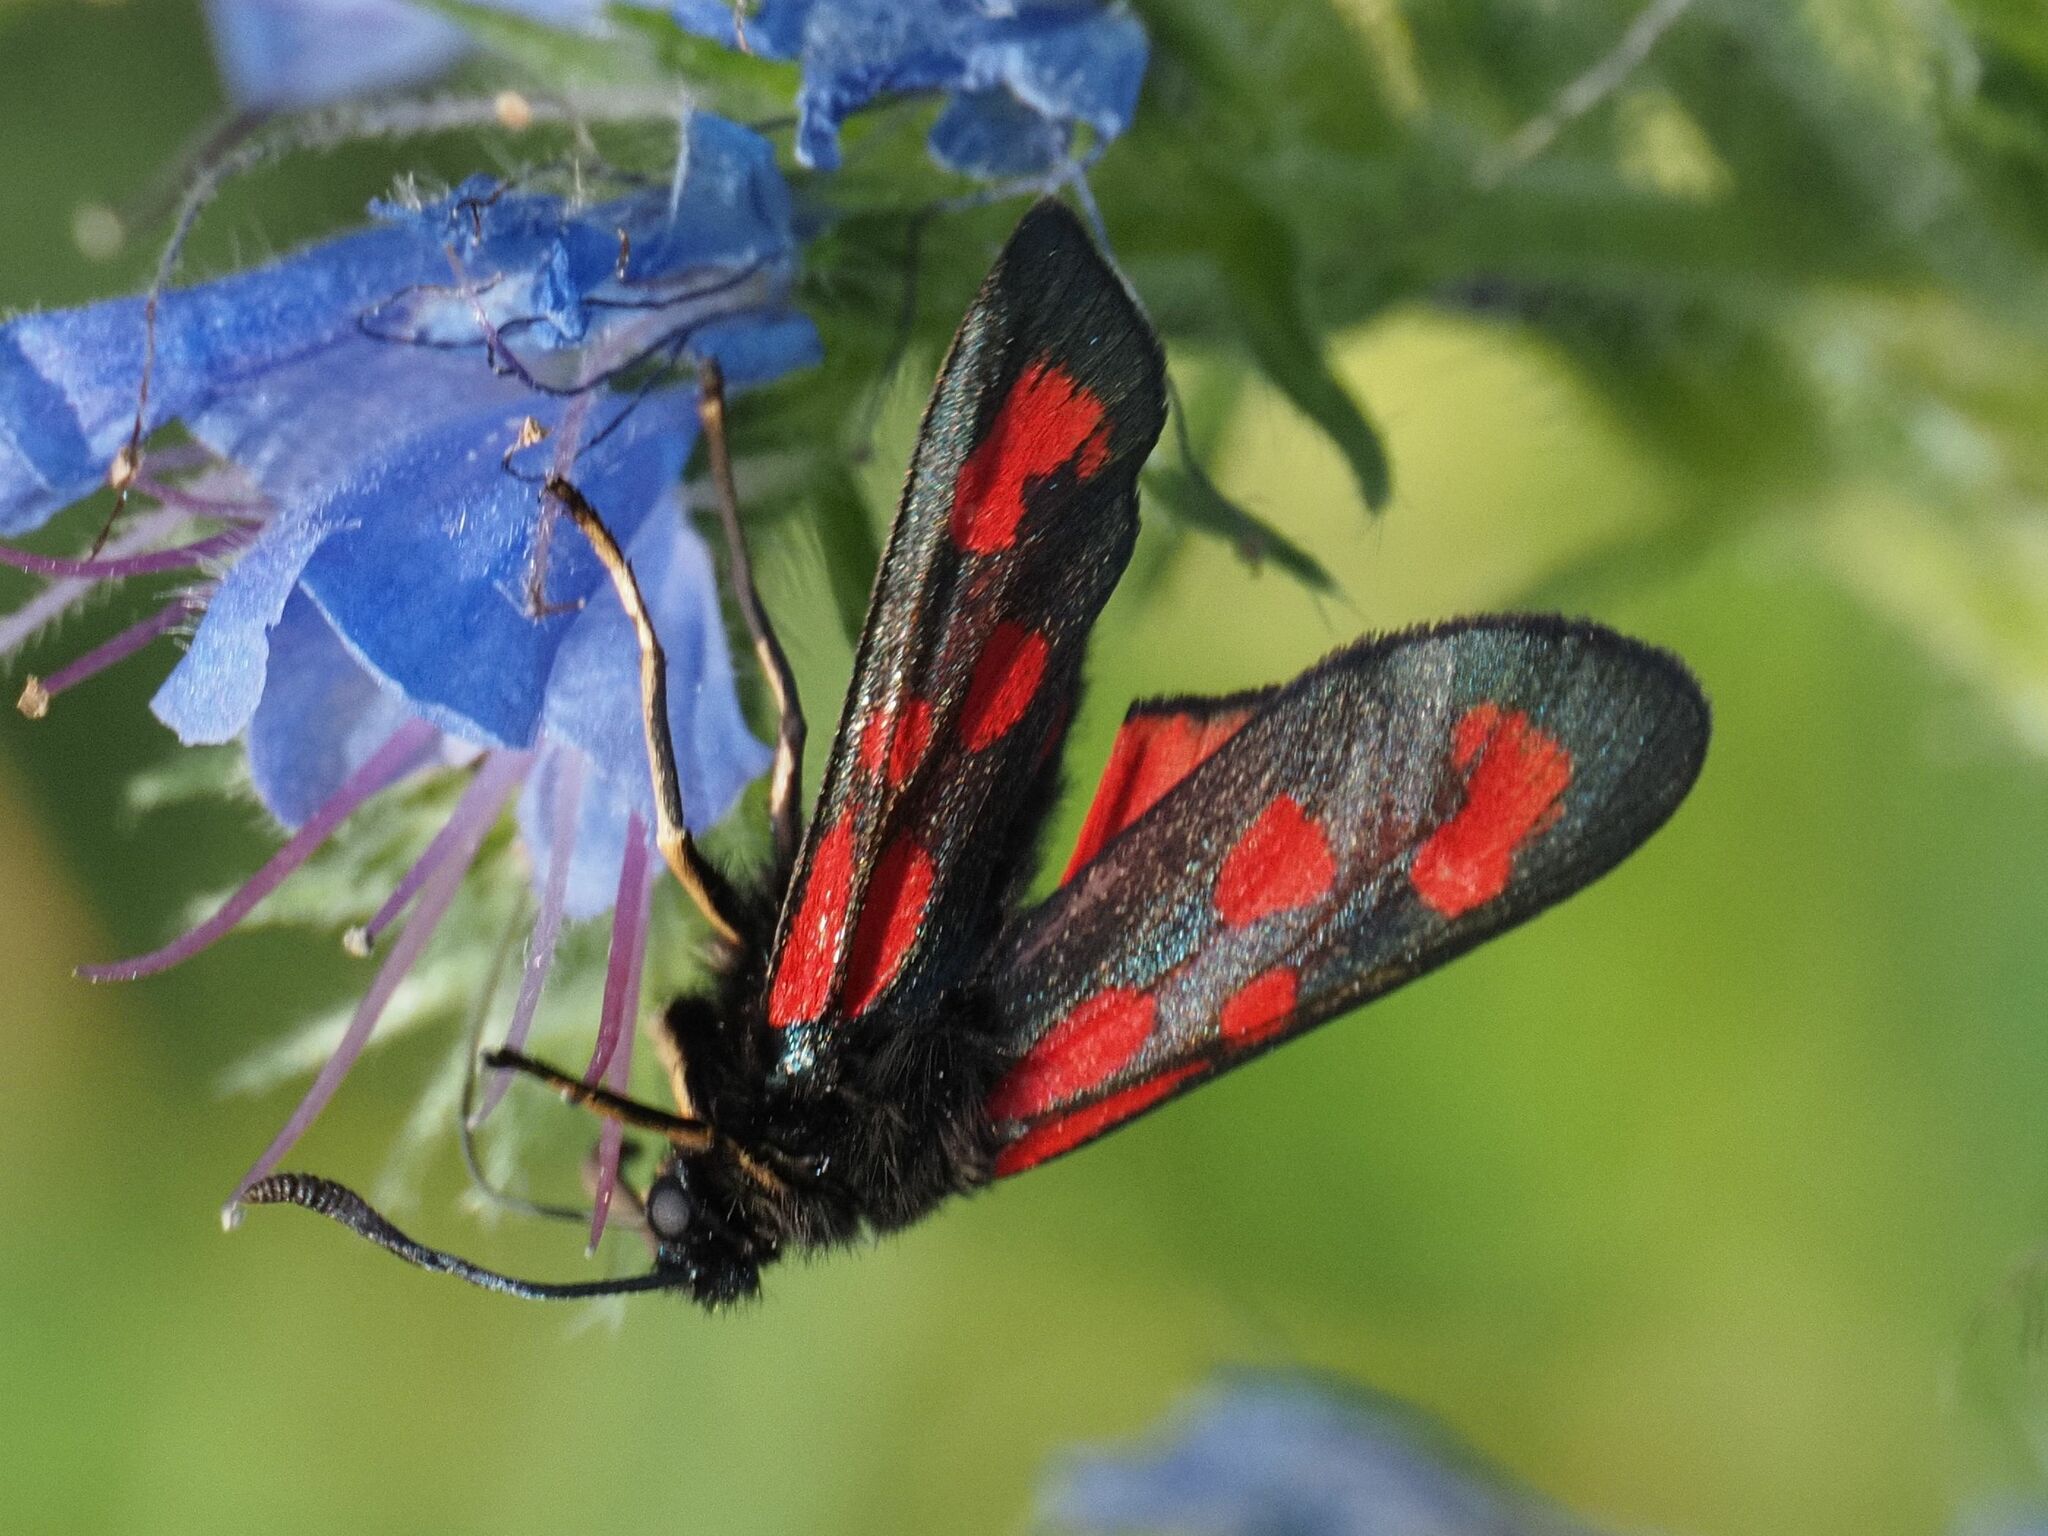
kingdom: Animalia
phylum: Arthropoda
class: Insecta
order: Lepidoptera
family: Zygaenidae
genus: Zygaena
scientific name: Zygaena loti
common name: Slender scotch burnet
